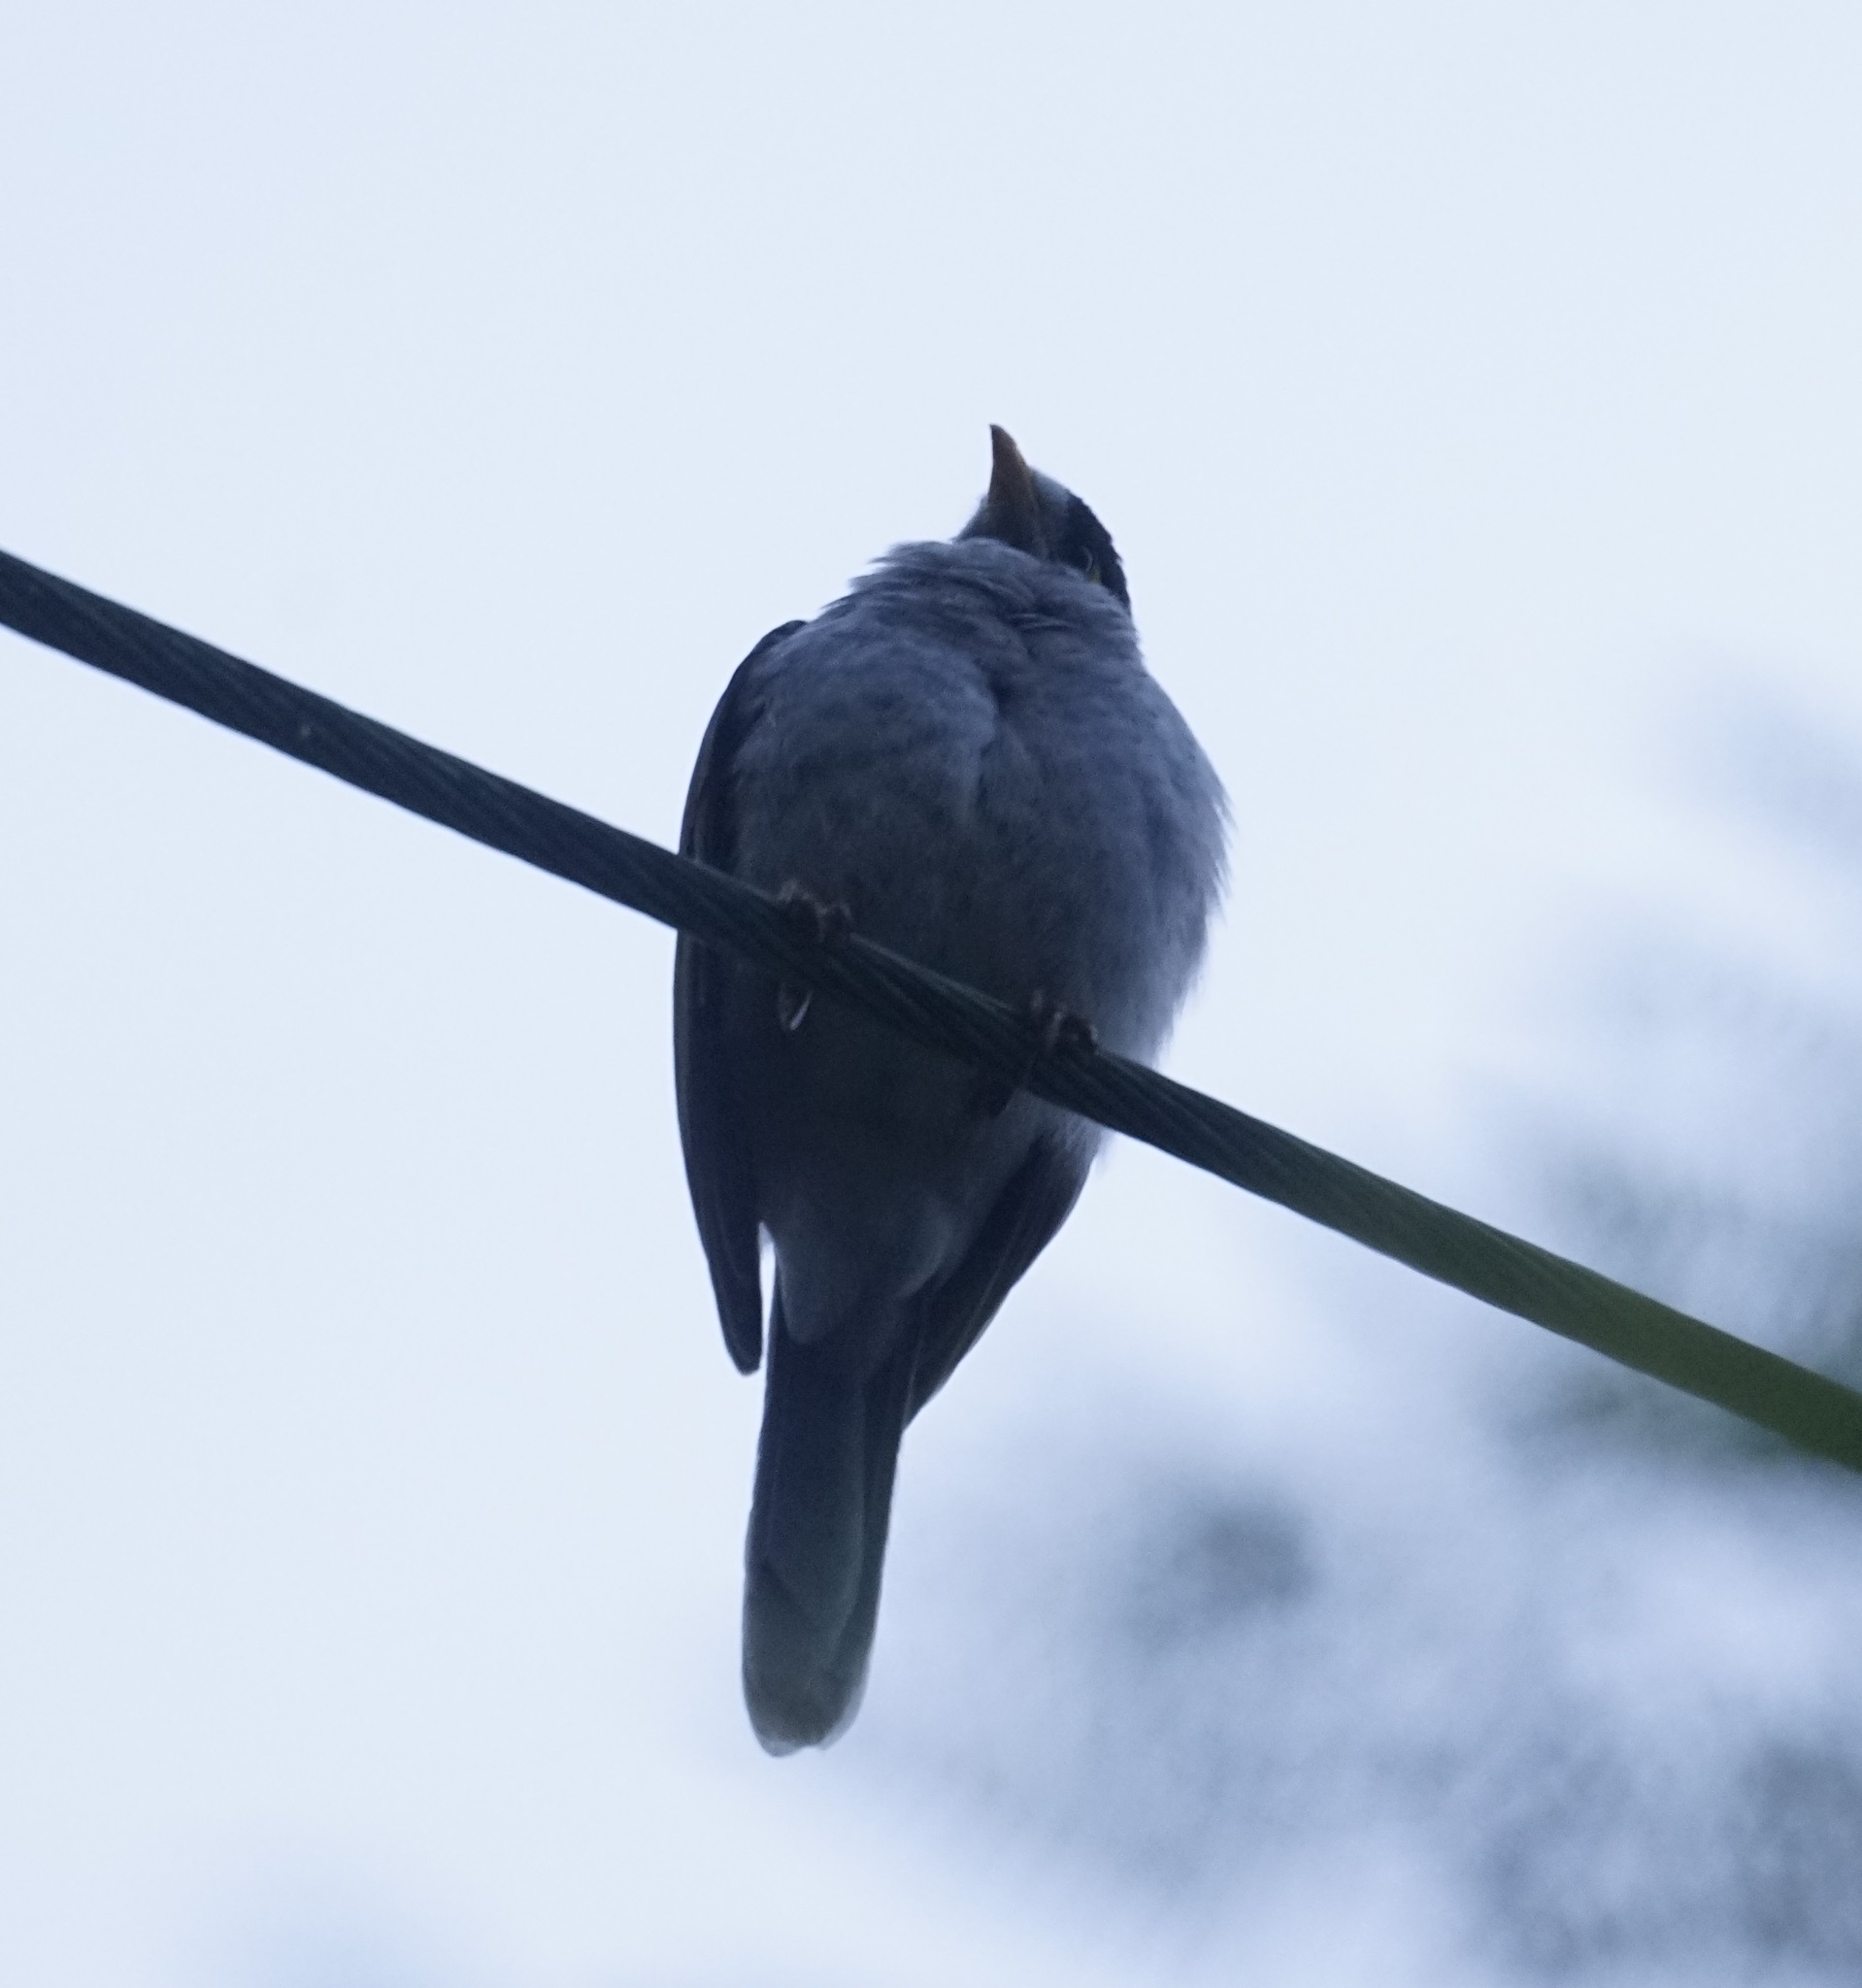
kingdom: Animalia
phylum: Chordata
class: Aves
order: Passeriformes
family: Meliphagidae
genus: Manorina
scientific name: Manorina melanocephala
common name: Noisy miner
